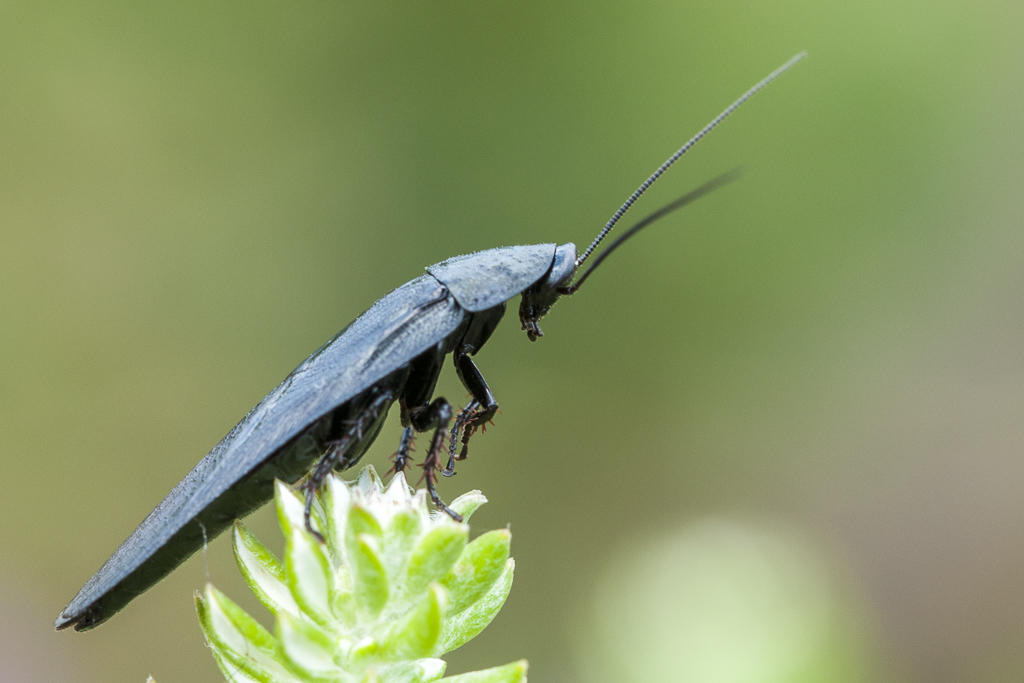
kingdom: Animalia
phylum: Arthropoda
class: Insecta
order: Blattodea
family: Blaberidae
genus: Bantua
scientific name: Bantua
